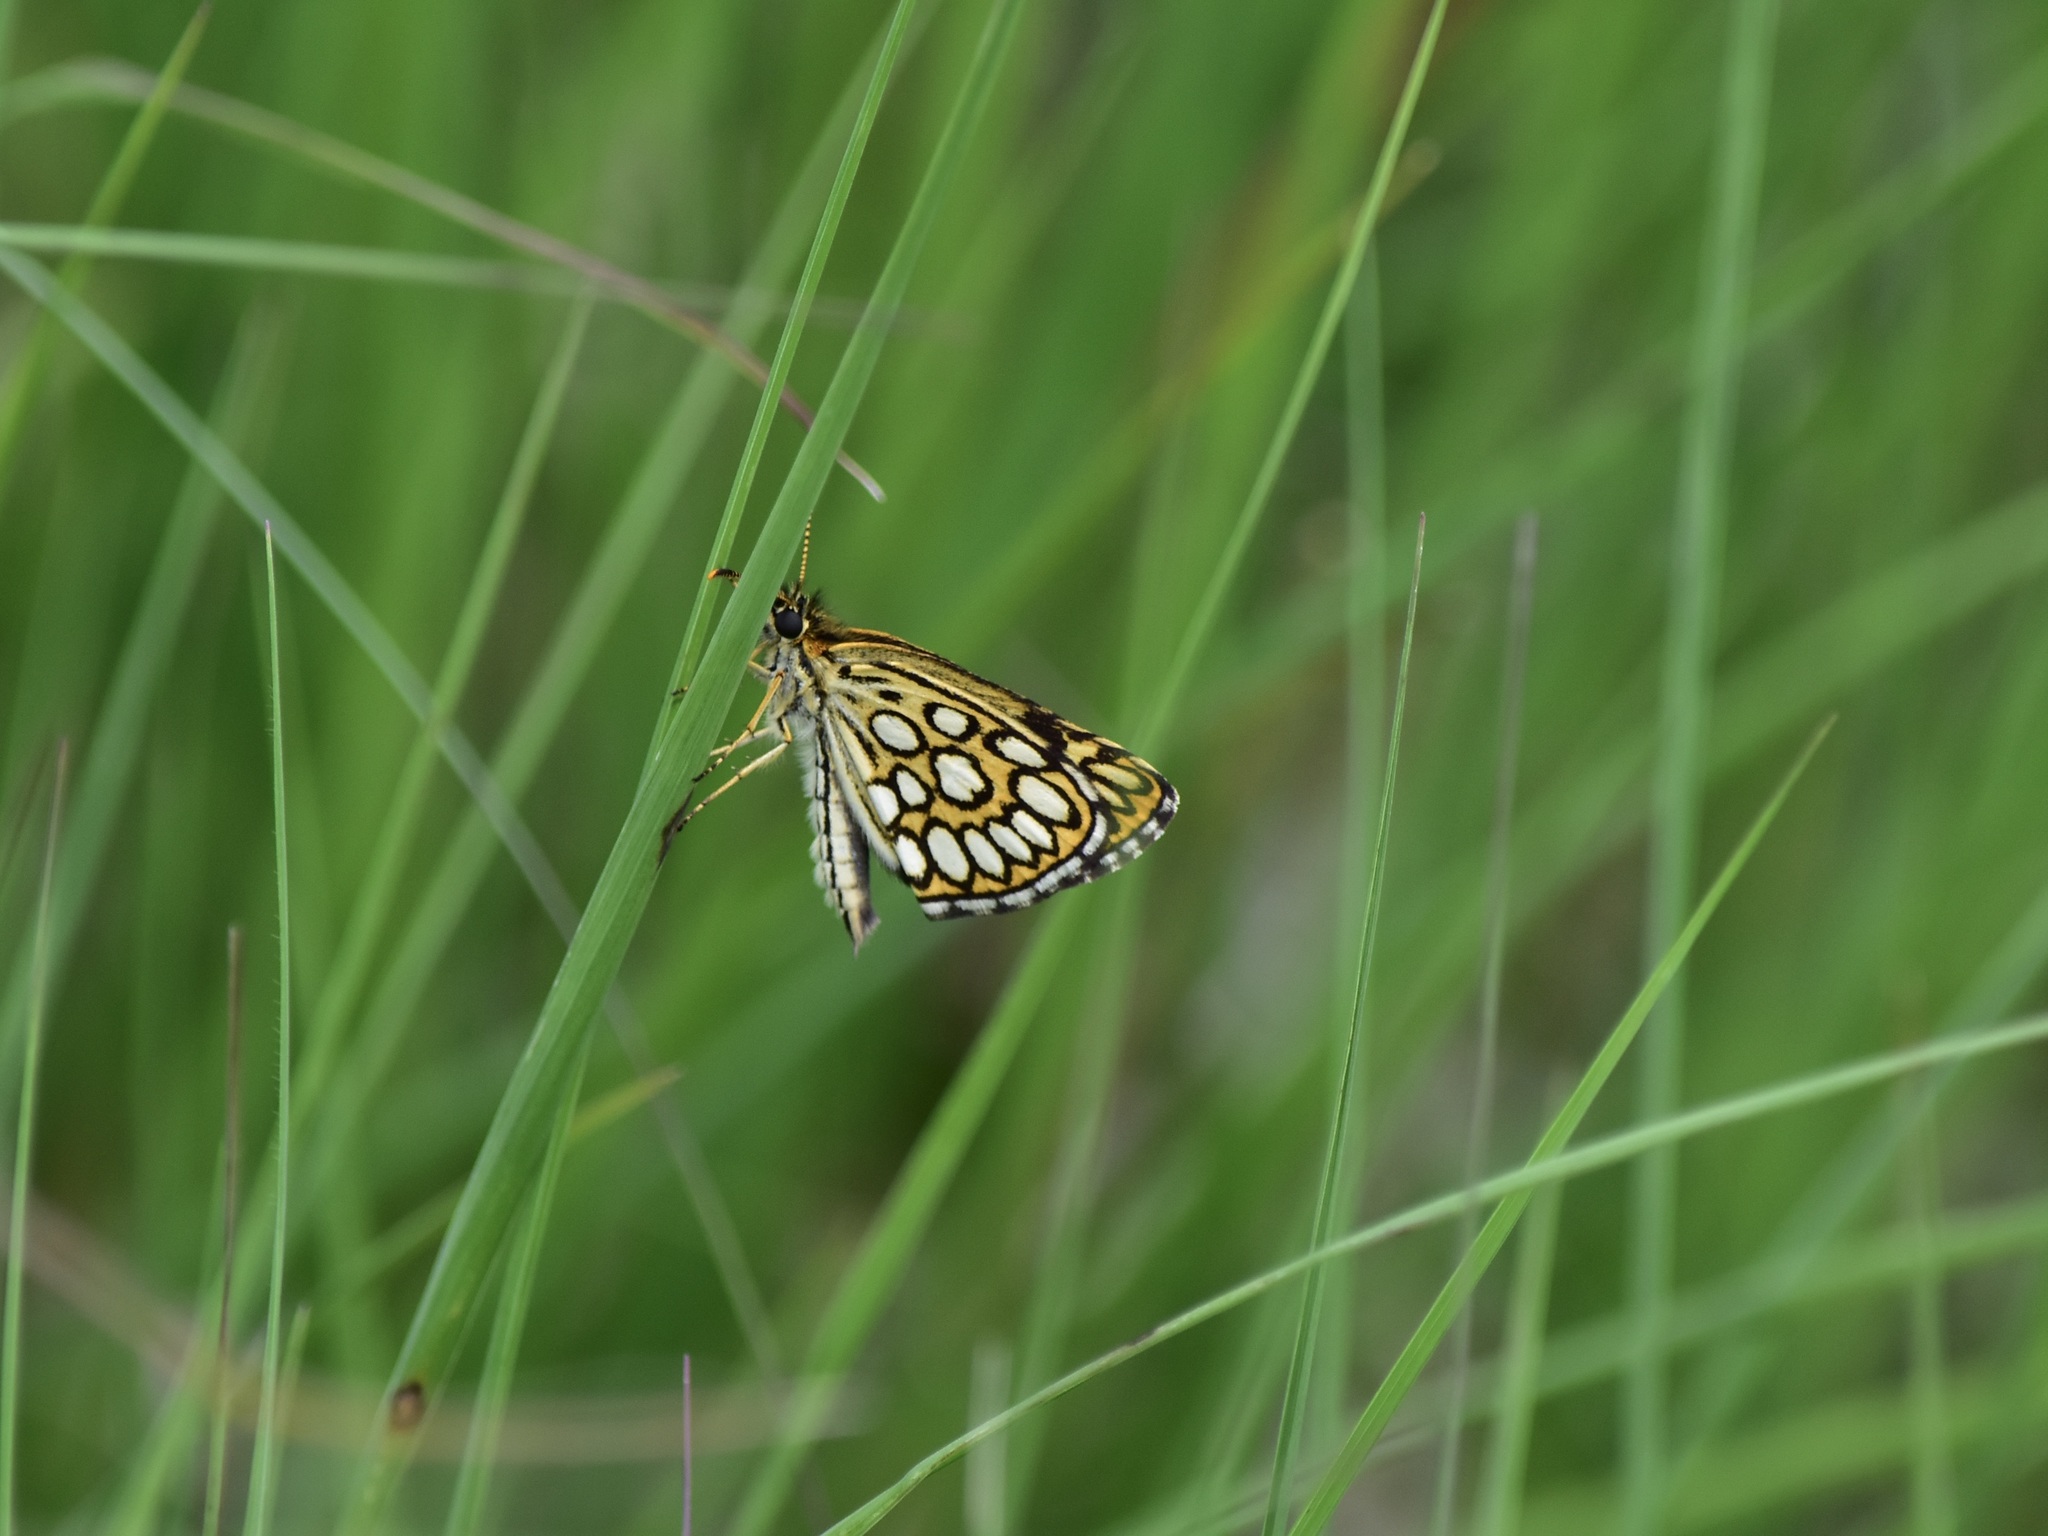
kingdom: Animalia
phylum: Arthropoda
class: Insecta
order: Lepidoptera
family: Hesperiidae
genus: Heteropterus
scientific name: Heteropterus morpheus
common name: Large chequered skipper
